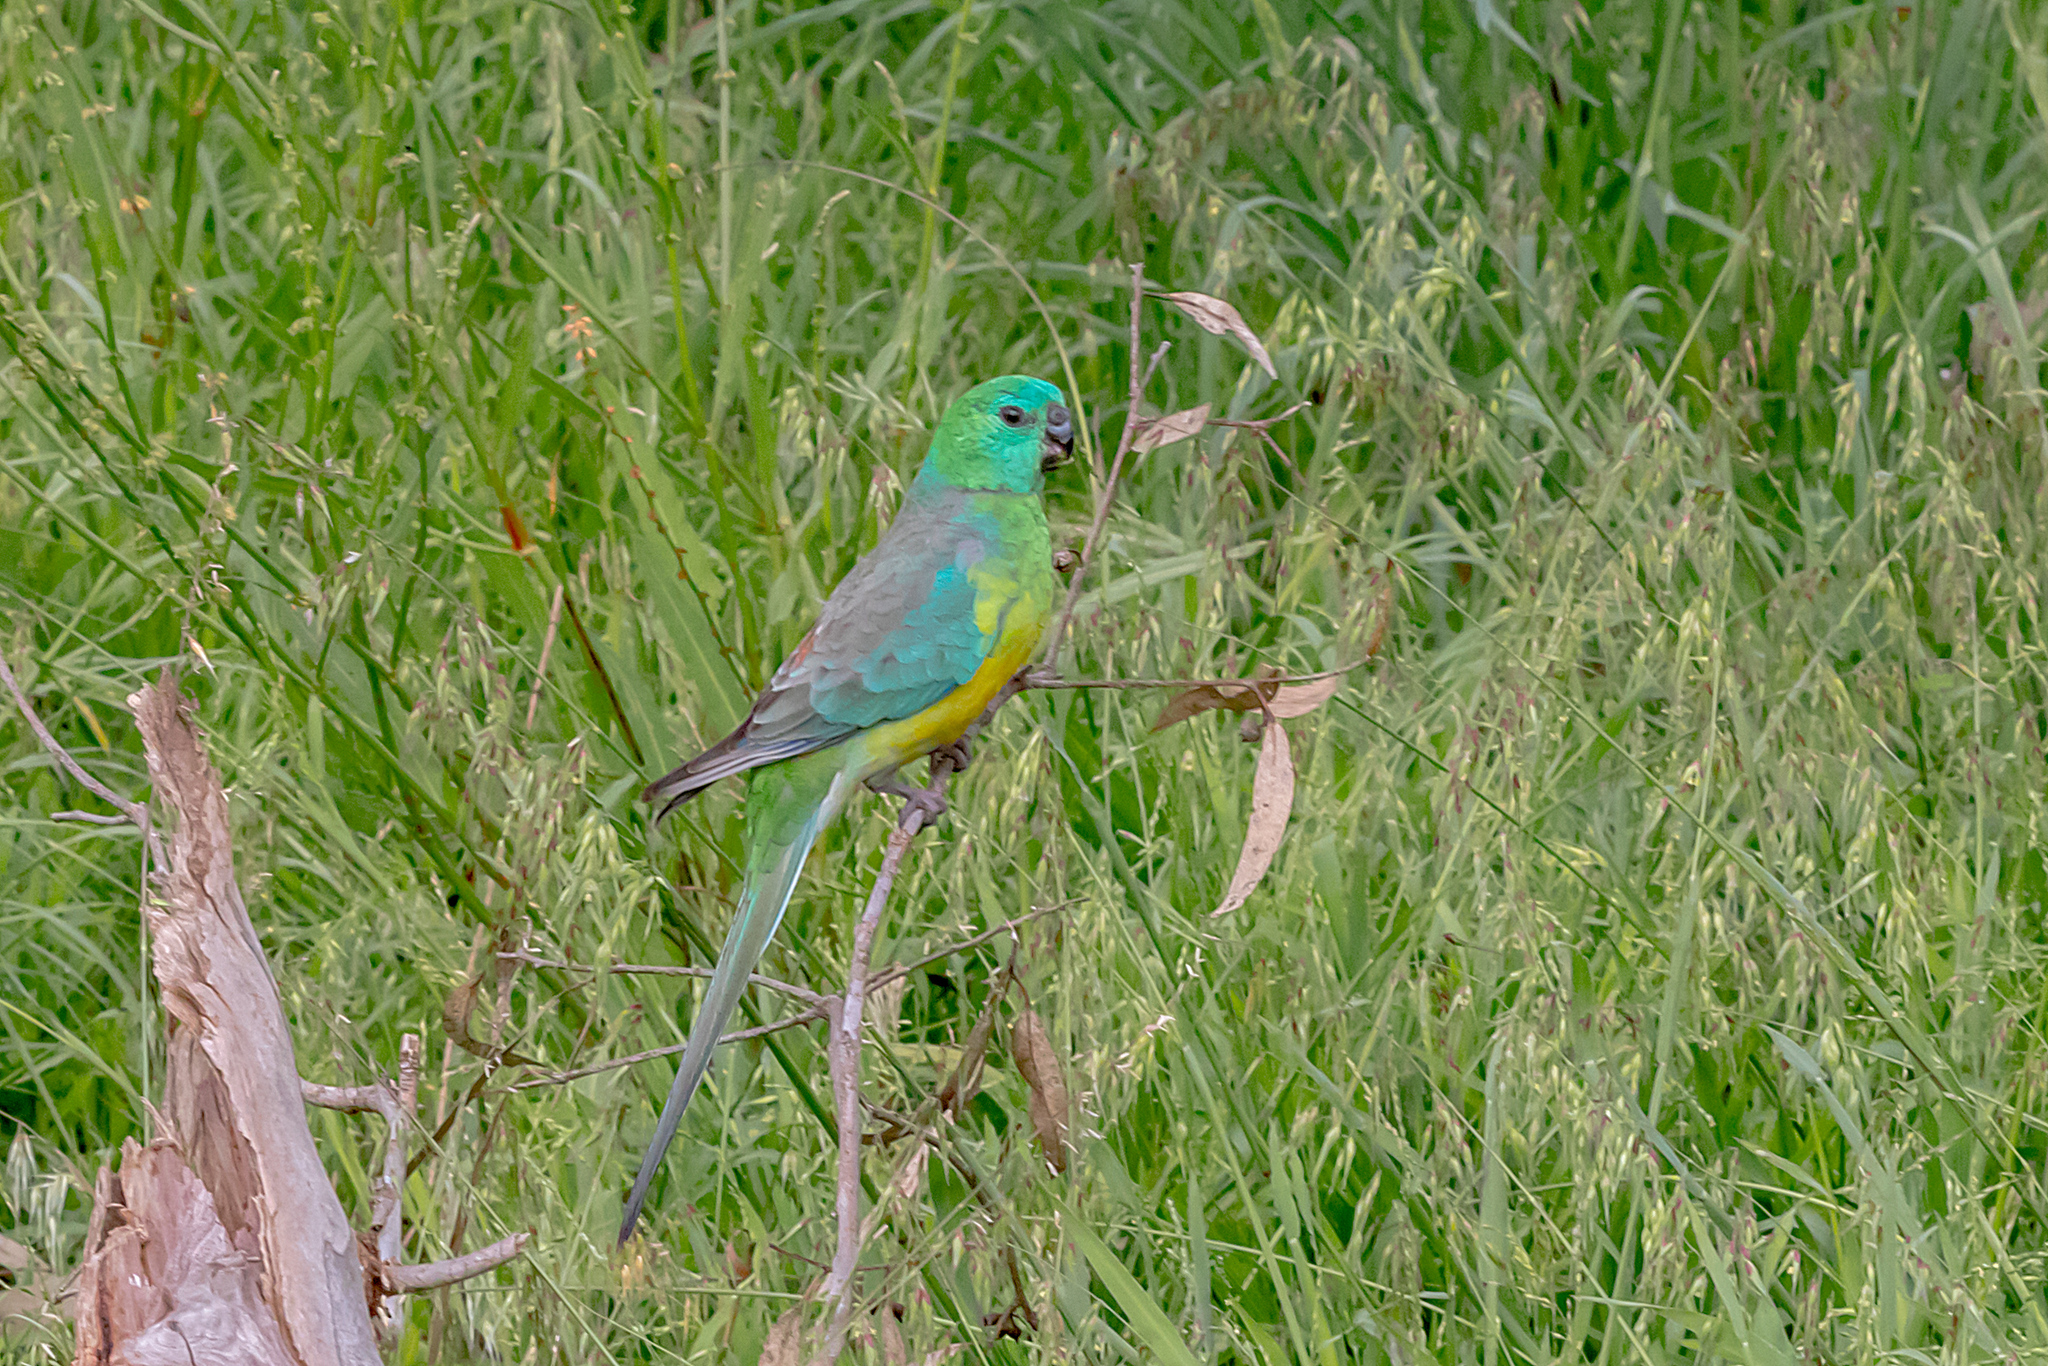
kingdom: Animalia
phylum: Chordata
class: Aves
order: Psittaciformes
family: Psittacidae
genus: Psephotus
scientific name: Psephotus haematonotus
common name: Red-rumped parrot
